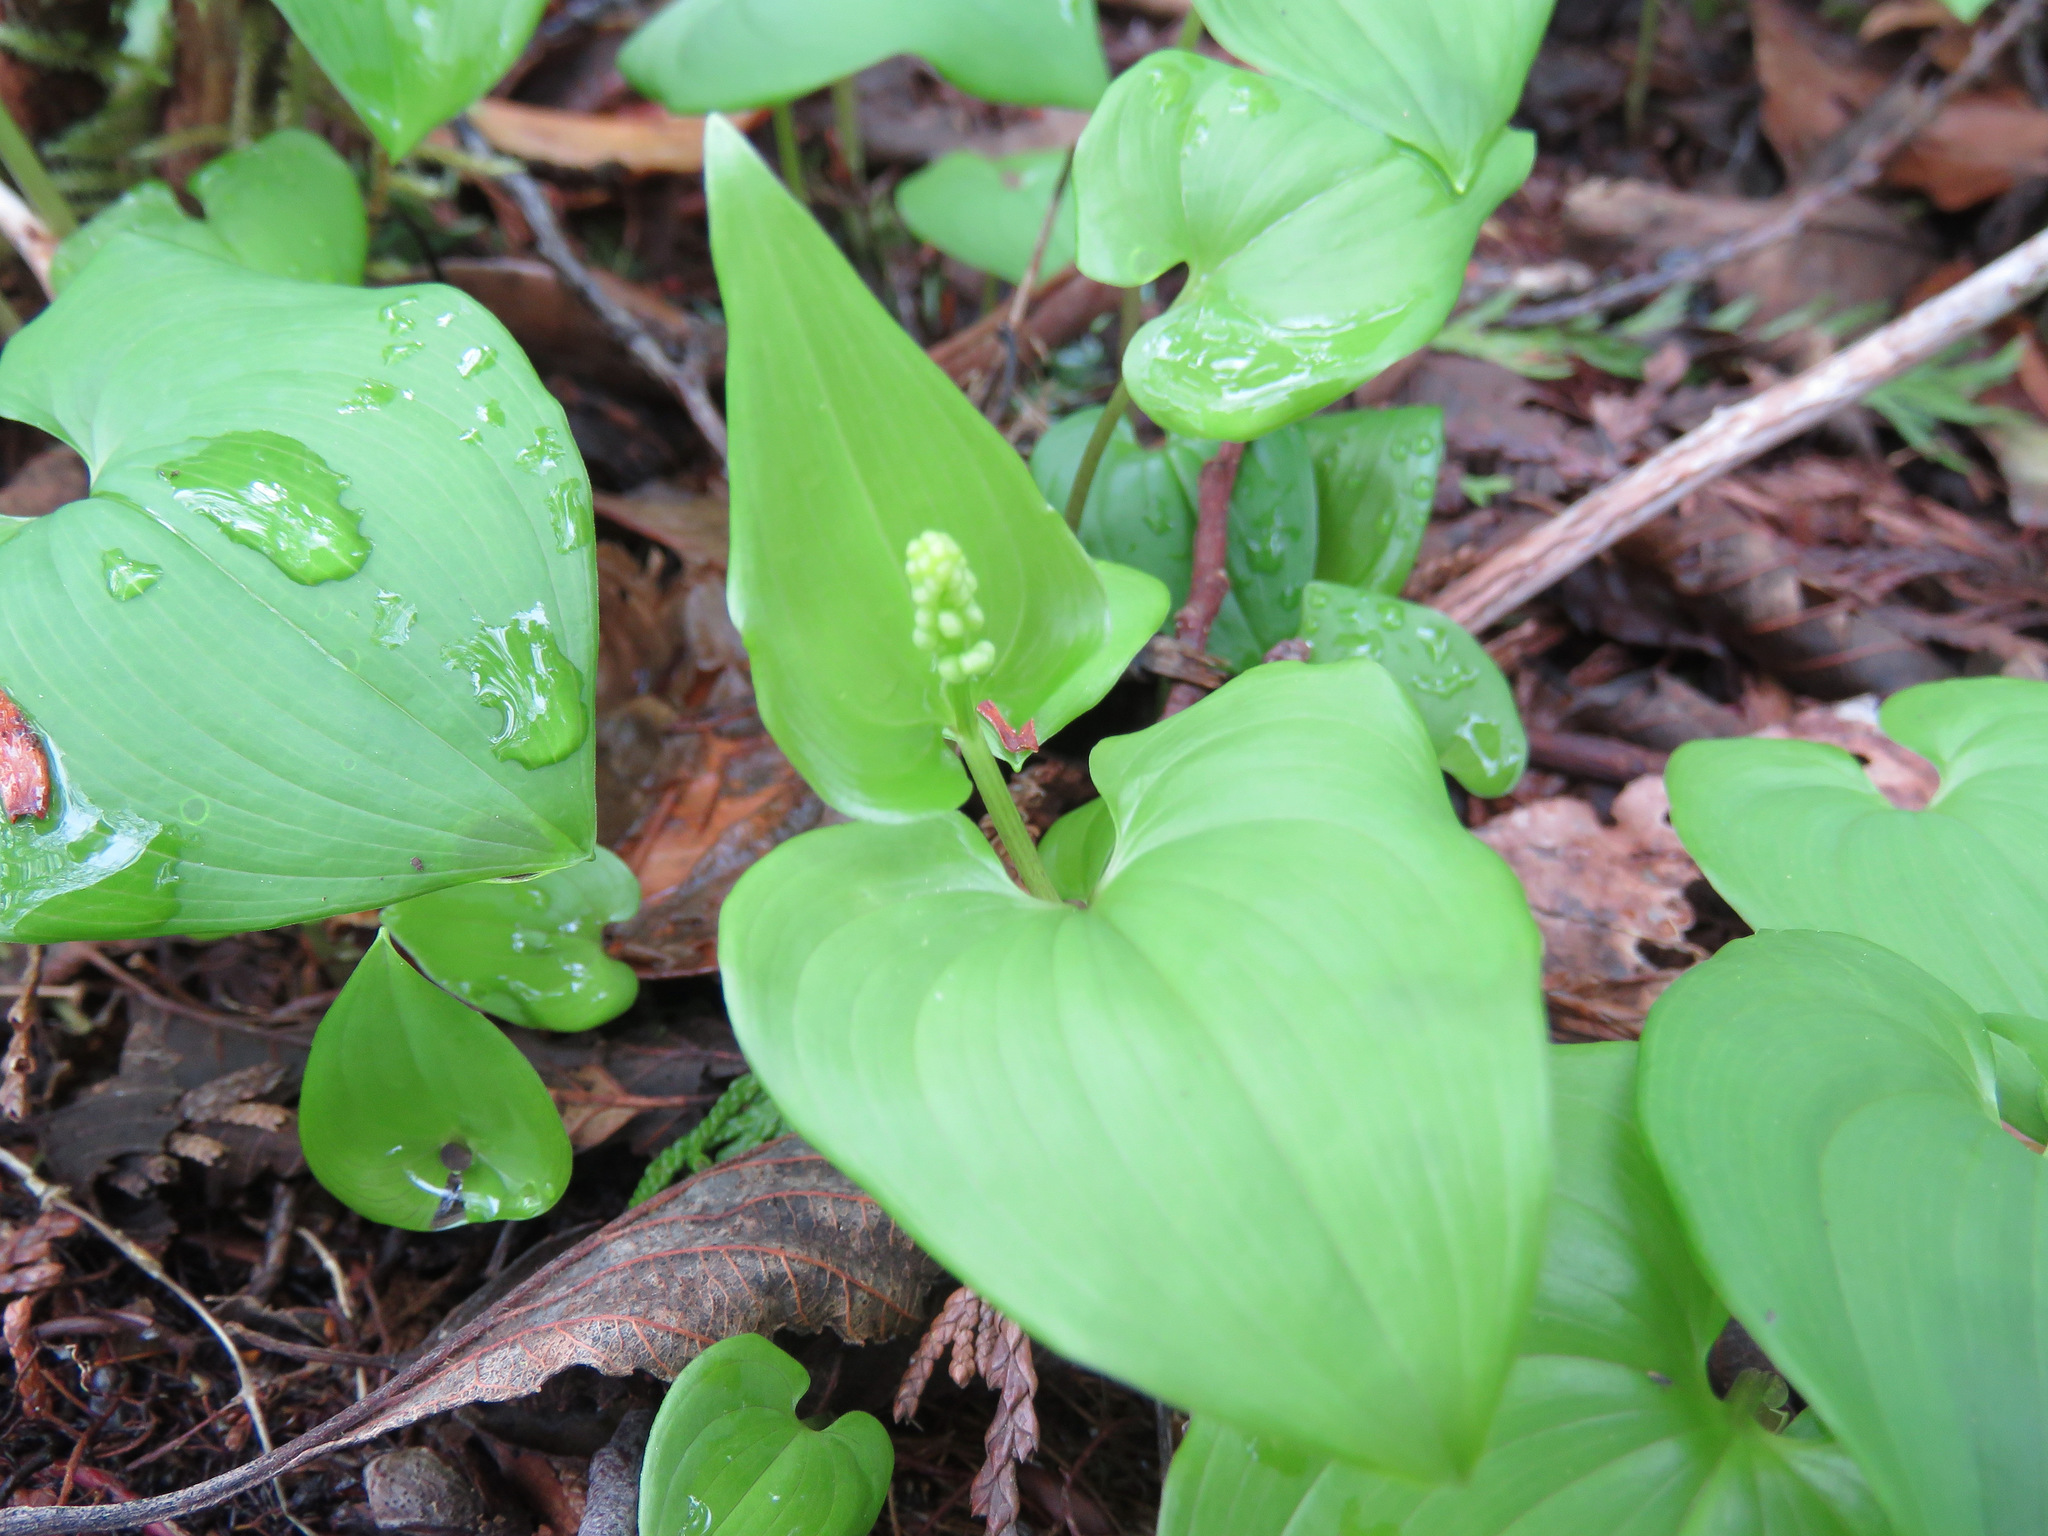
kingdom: Plantae
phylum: Tracheophyta
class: Liliopsida
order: Asparagales
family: Asparagaceae
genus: Maianthemum
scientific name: Maianthemum dilatatum
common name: False lily-of-the-valley
